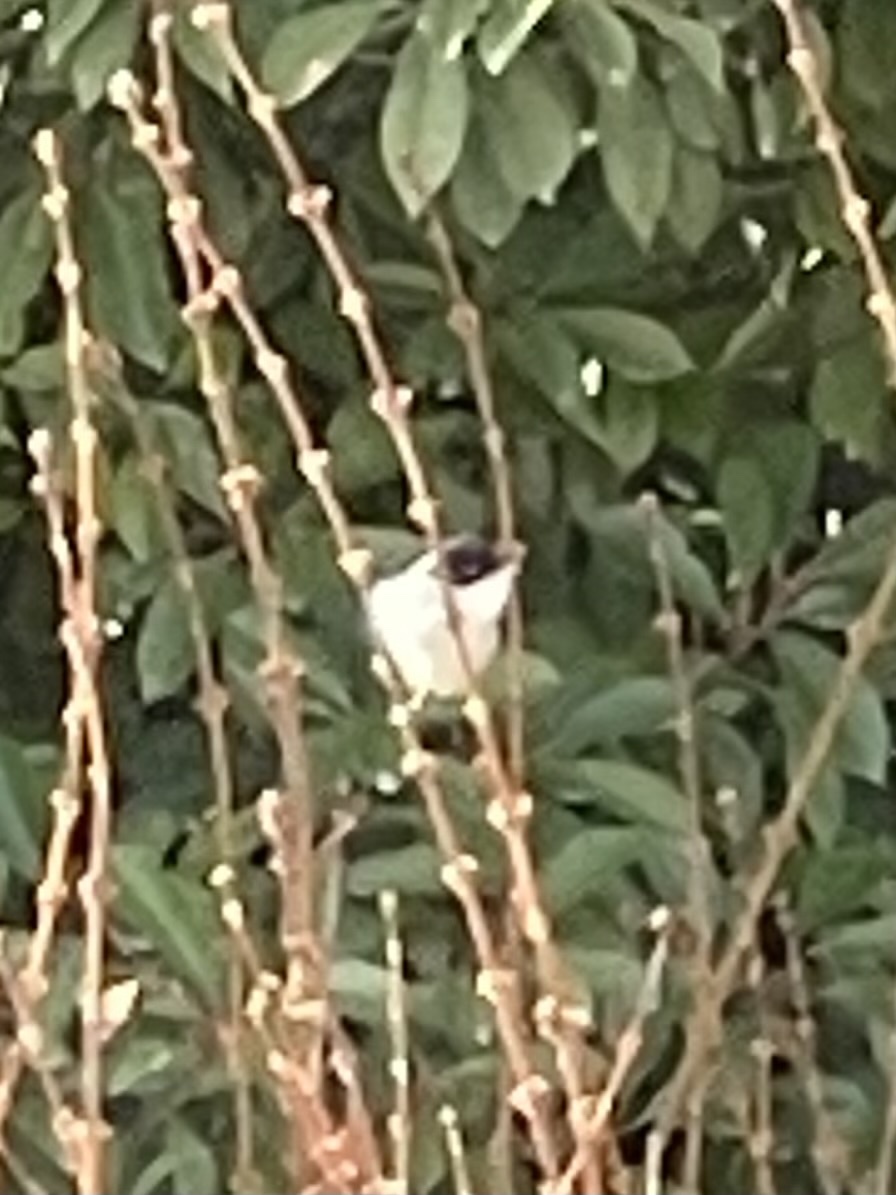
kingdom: Animalia
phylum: Chordata
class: Aves
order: Passeriformes
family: Sylviidae
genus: Curruca
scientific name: Curruca melanocephala
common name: Sardinian warbler
